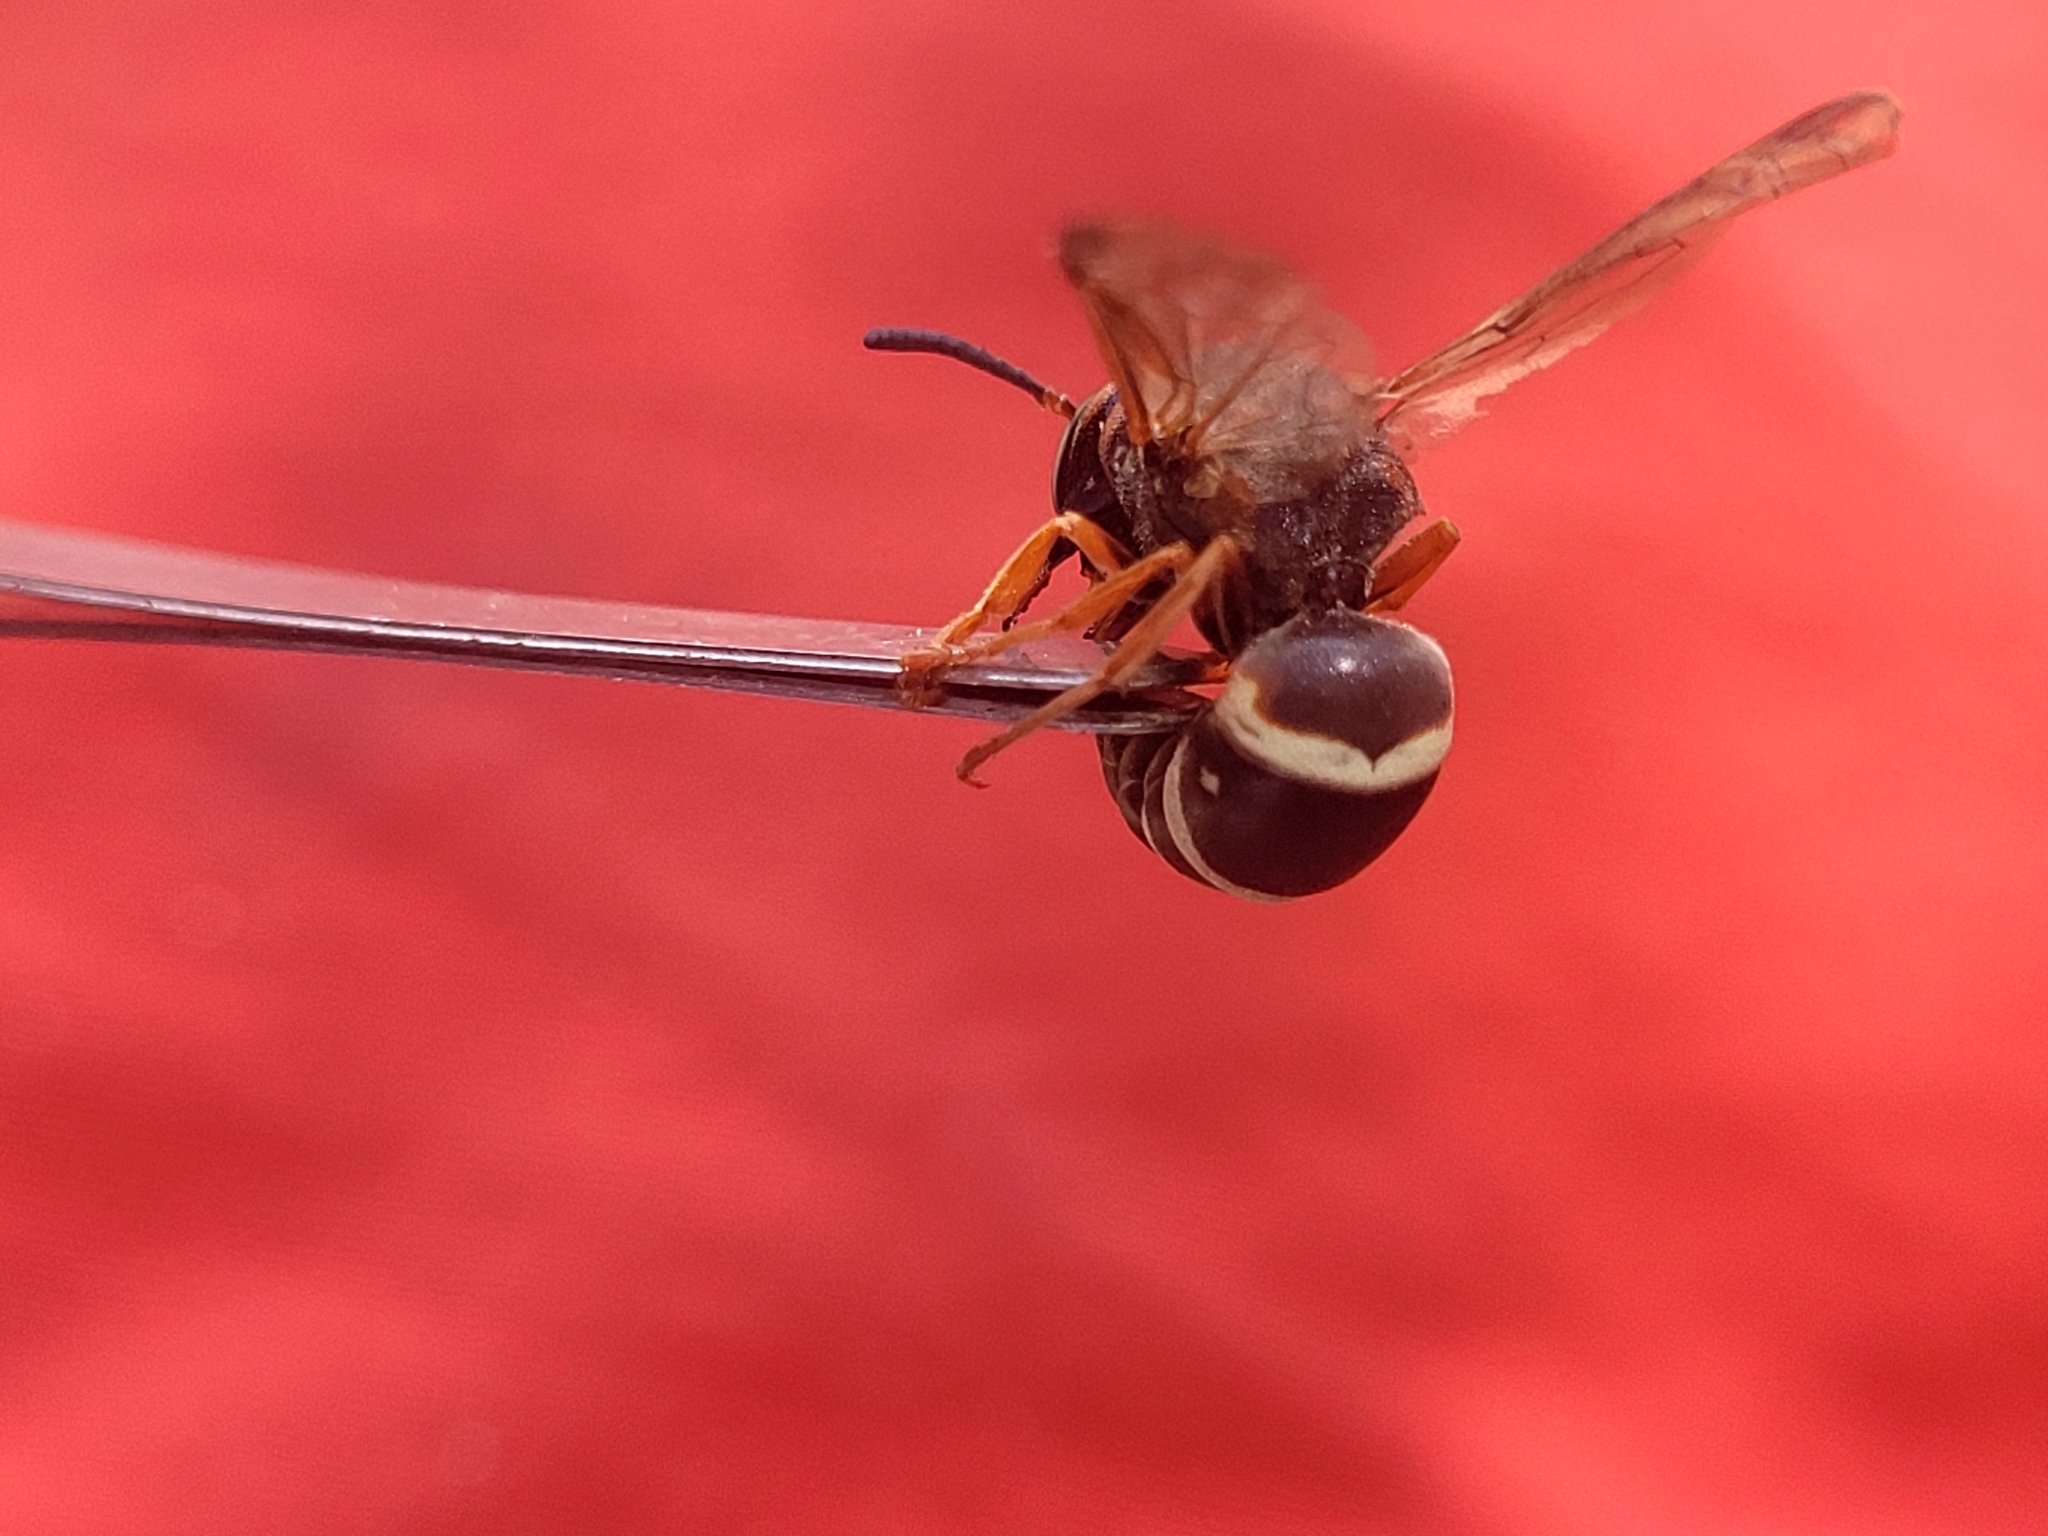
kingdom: Animalia
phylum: Arthropoda
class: Insecta
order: Hymenoptera
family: Eumenidae
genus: Euodynerus
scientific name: Euodynerus auranus
